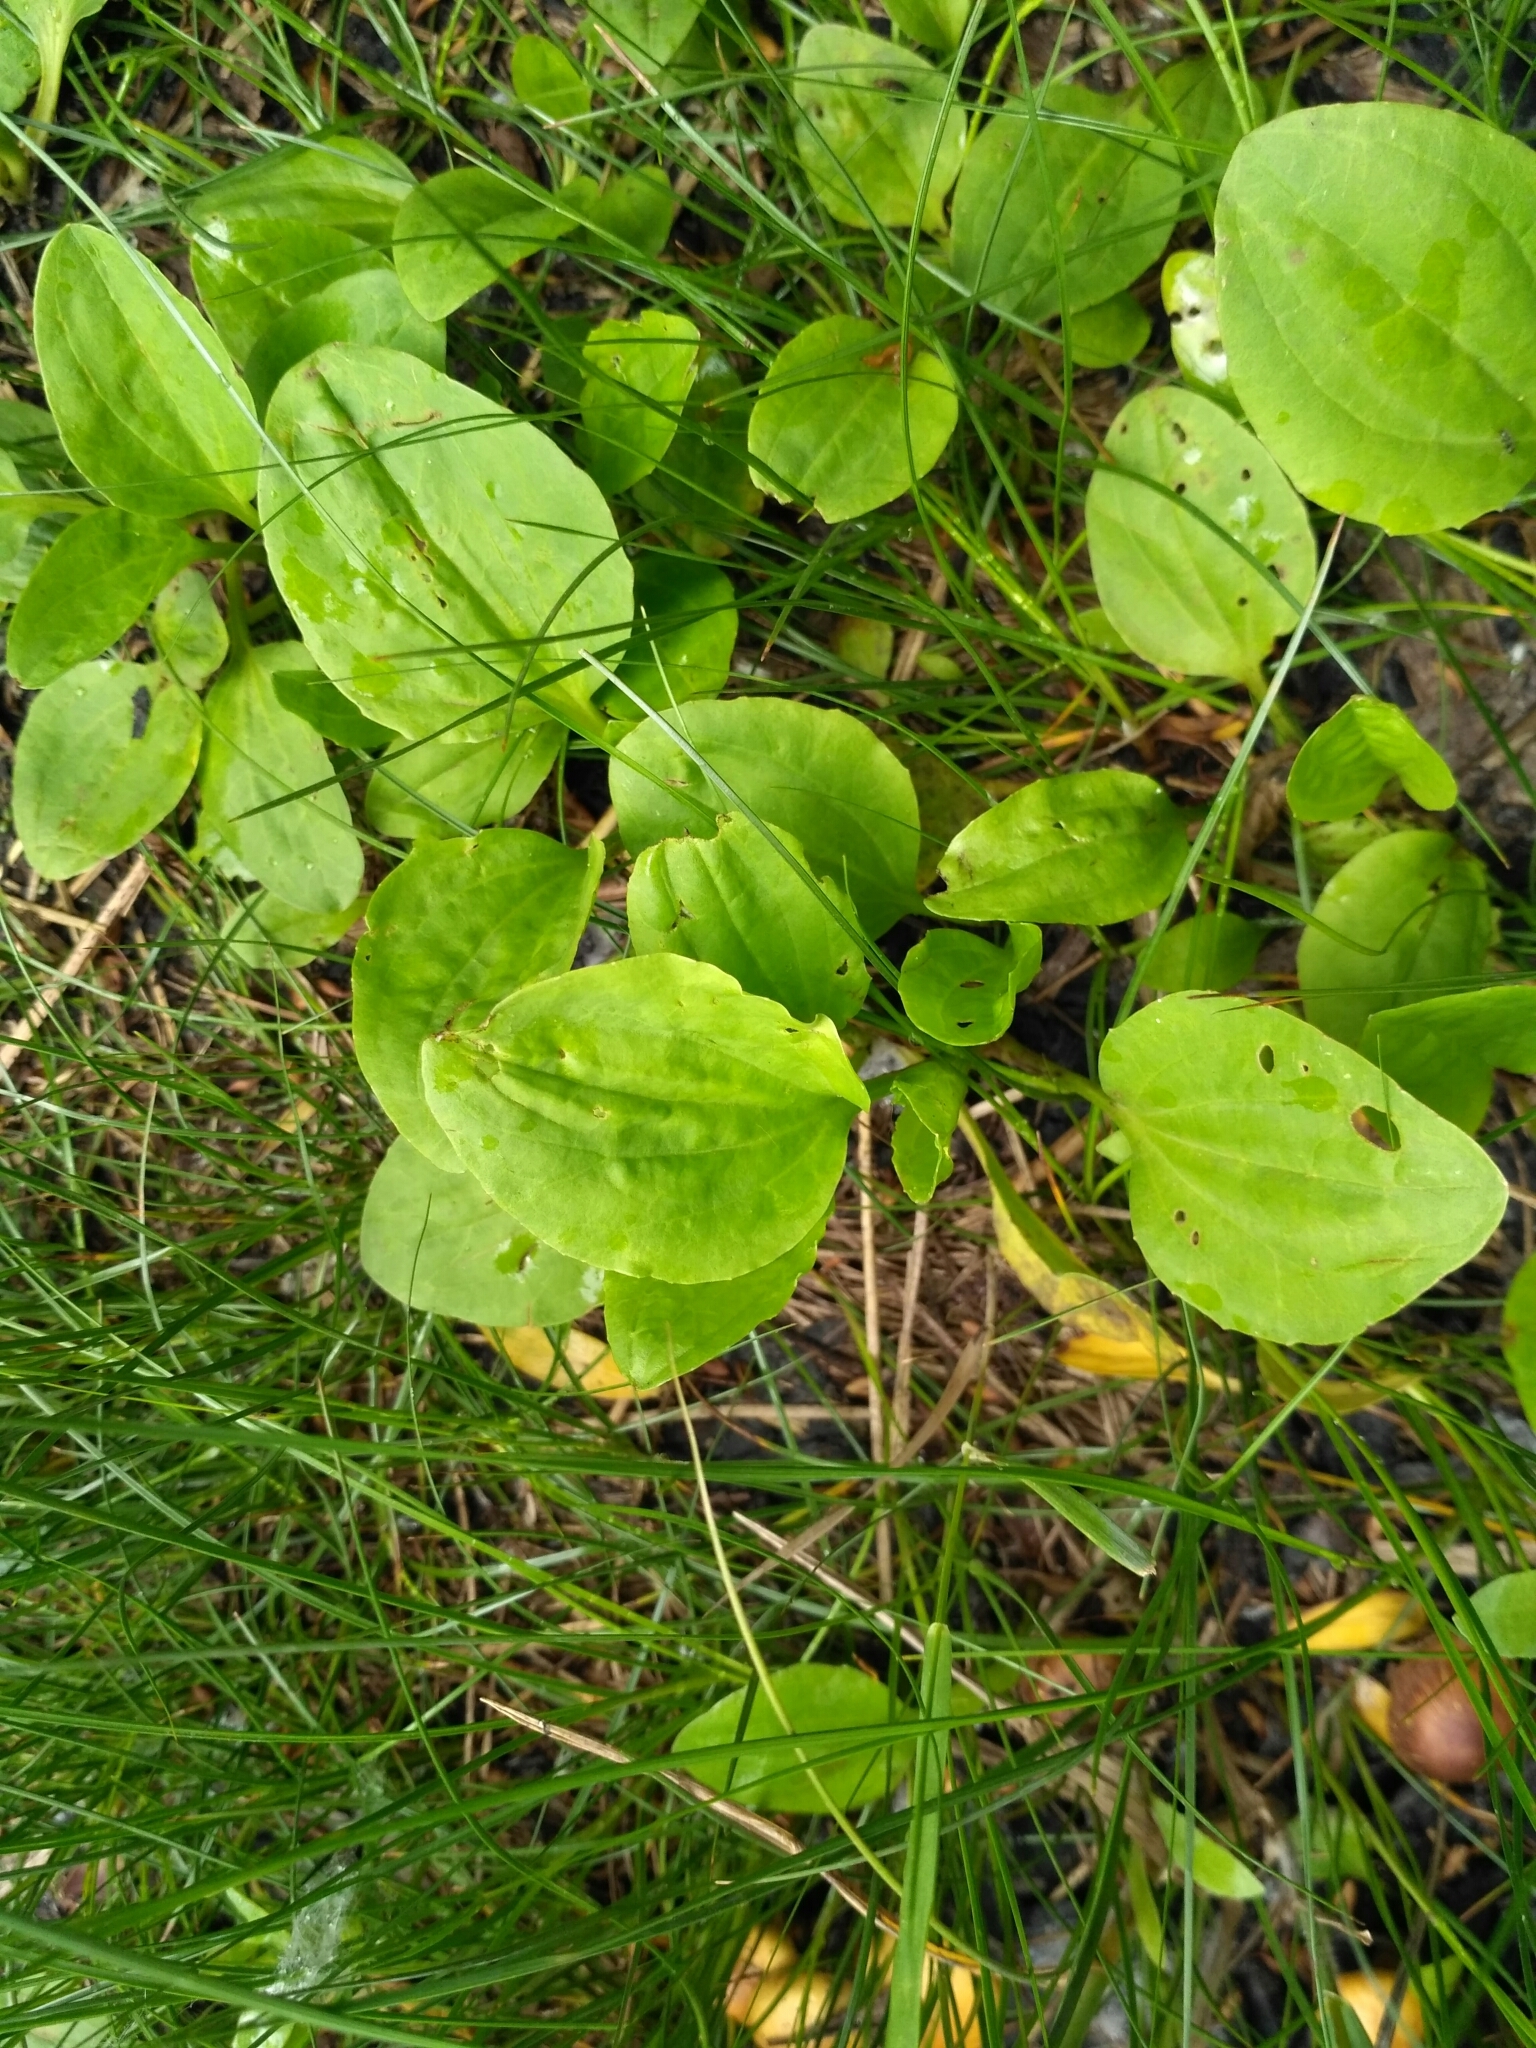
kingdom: Plantae
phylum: Tracheophyta
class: Magnoliopsida
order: Lamiales
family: Plantaginaceae
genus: Plantago
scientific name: Plantago major
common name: Common plantain
